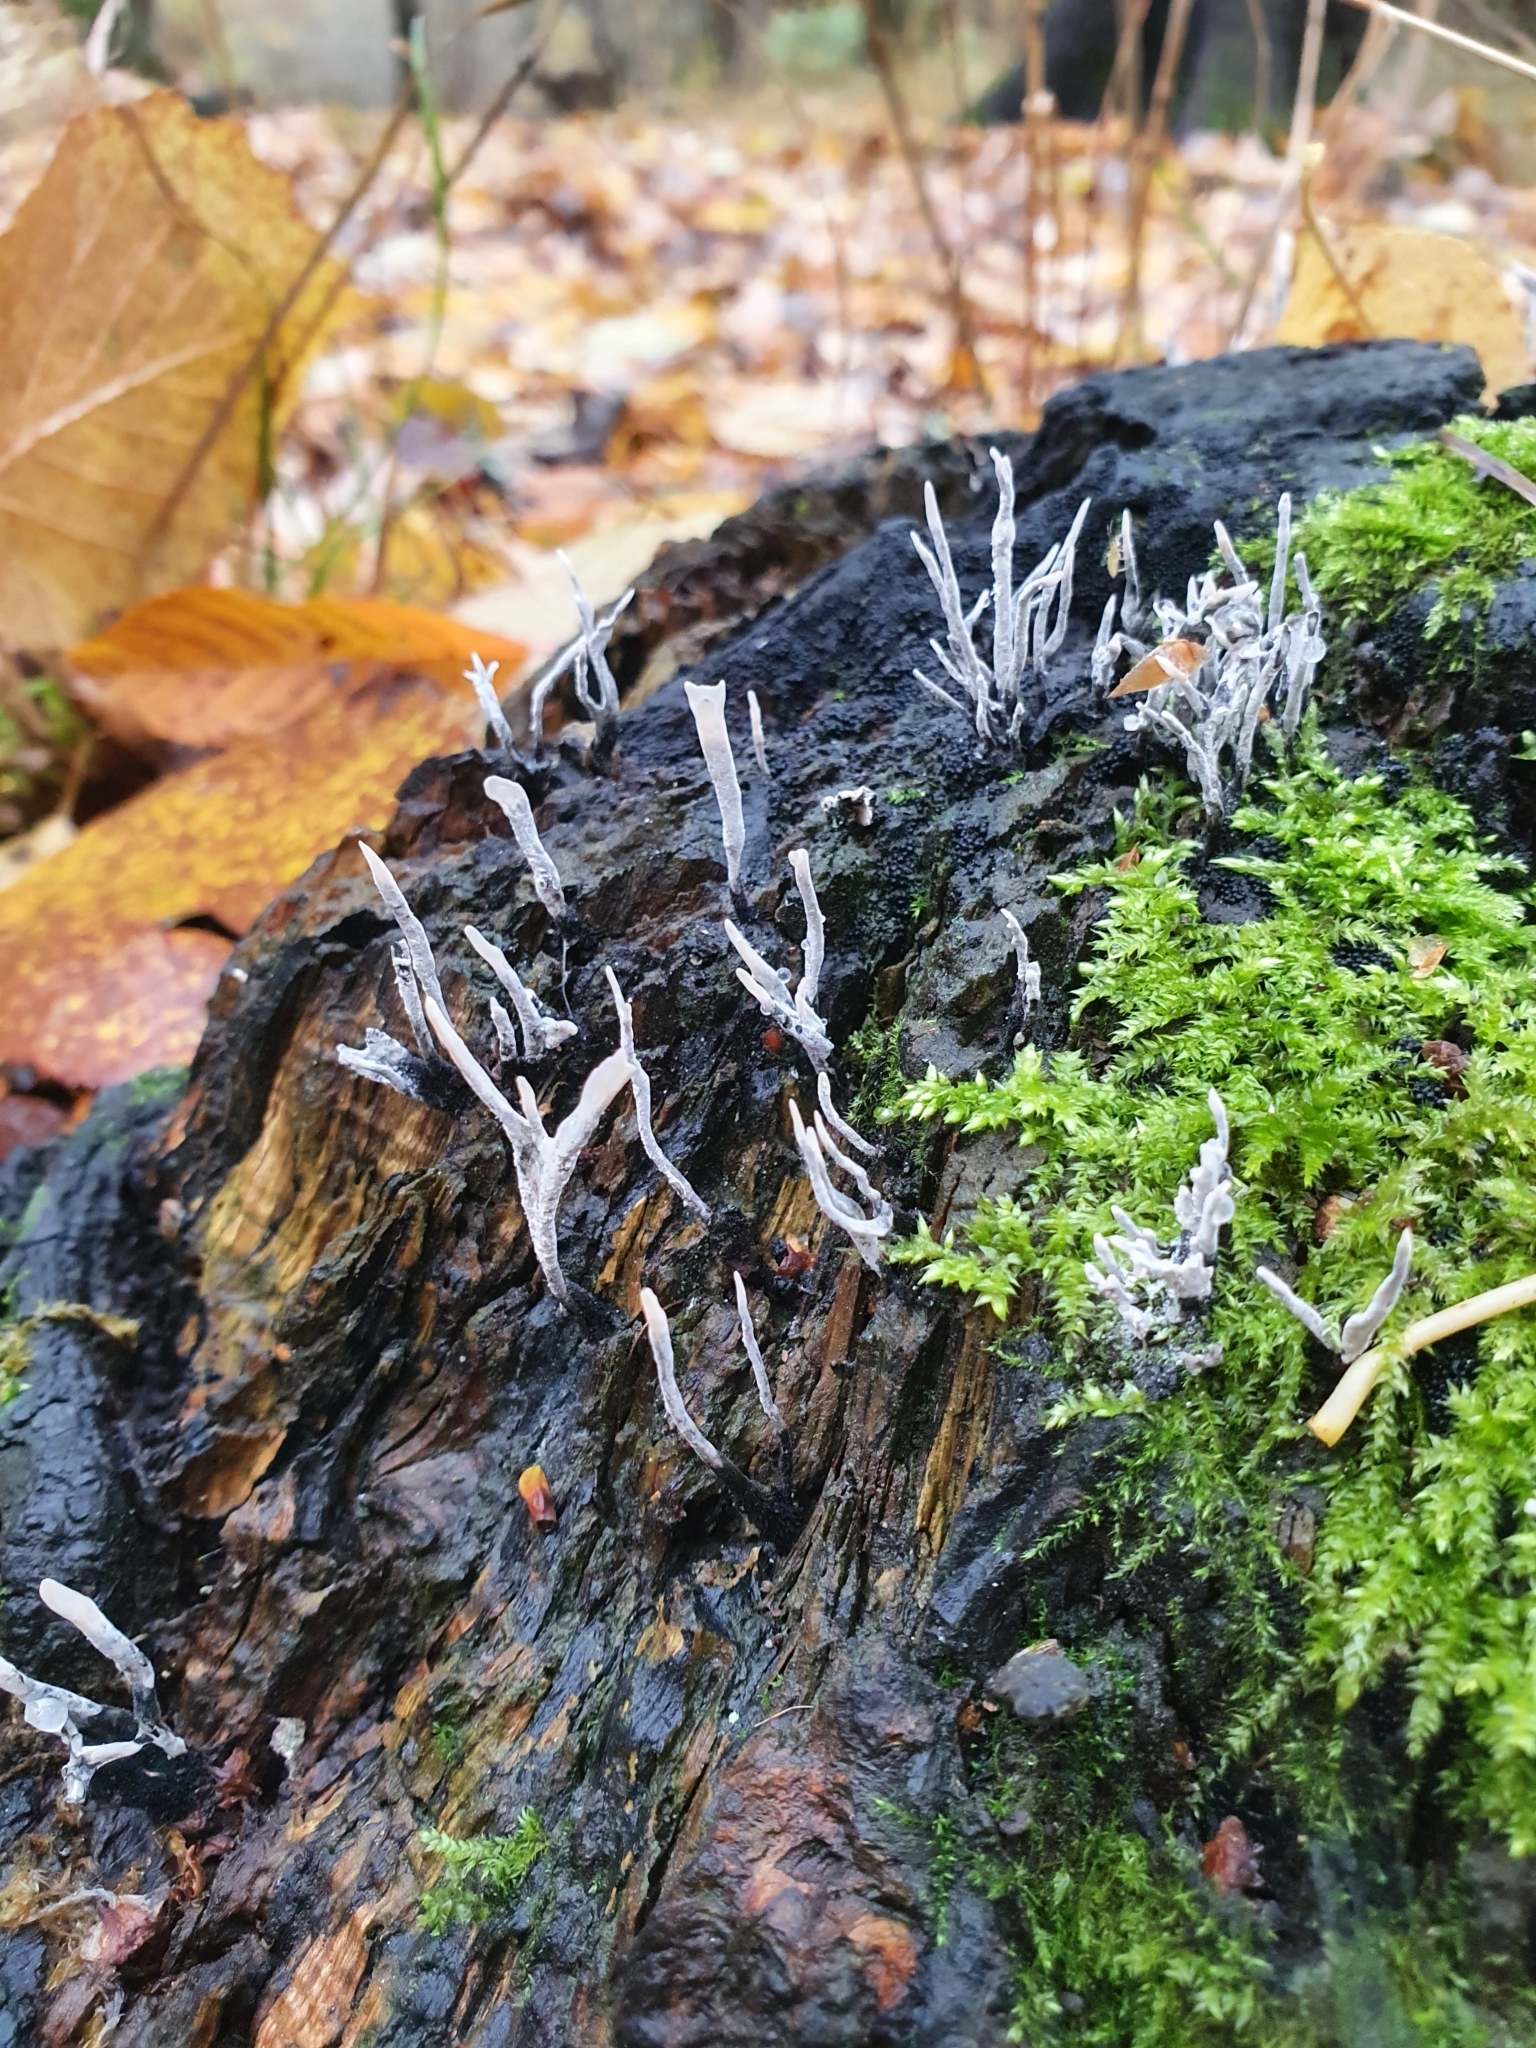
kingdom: Fungi
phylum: Ascomycota
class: Sordariomycetes
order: Xylariales
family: Xylariaceae
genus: Xylaria
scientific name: Xylaria hypoxylon
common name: Candle-snuff fungus
